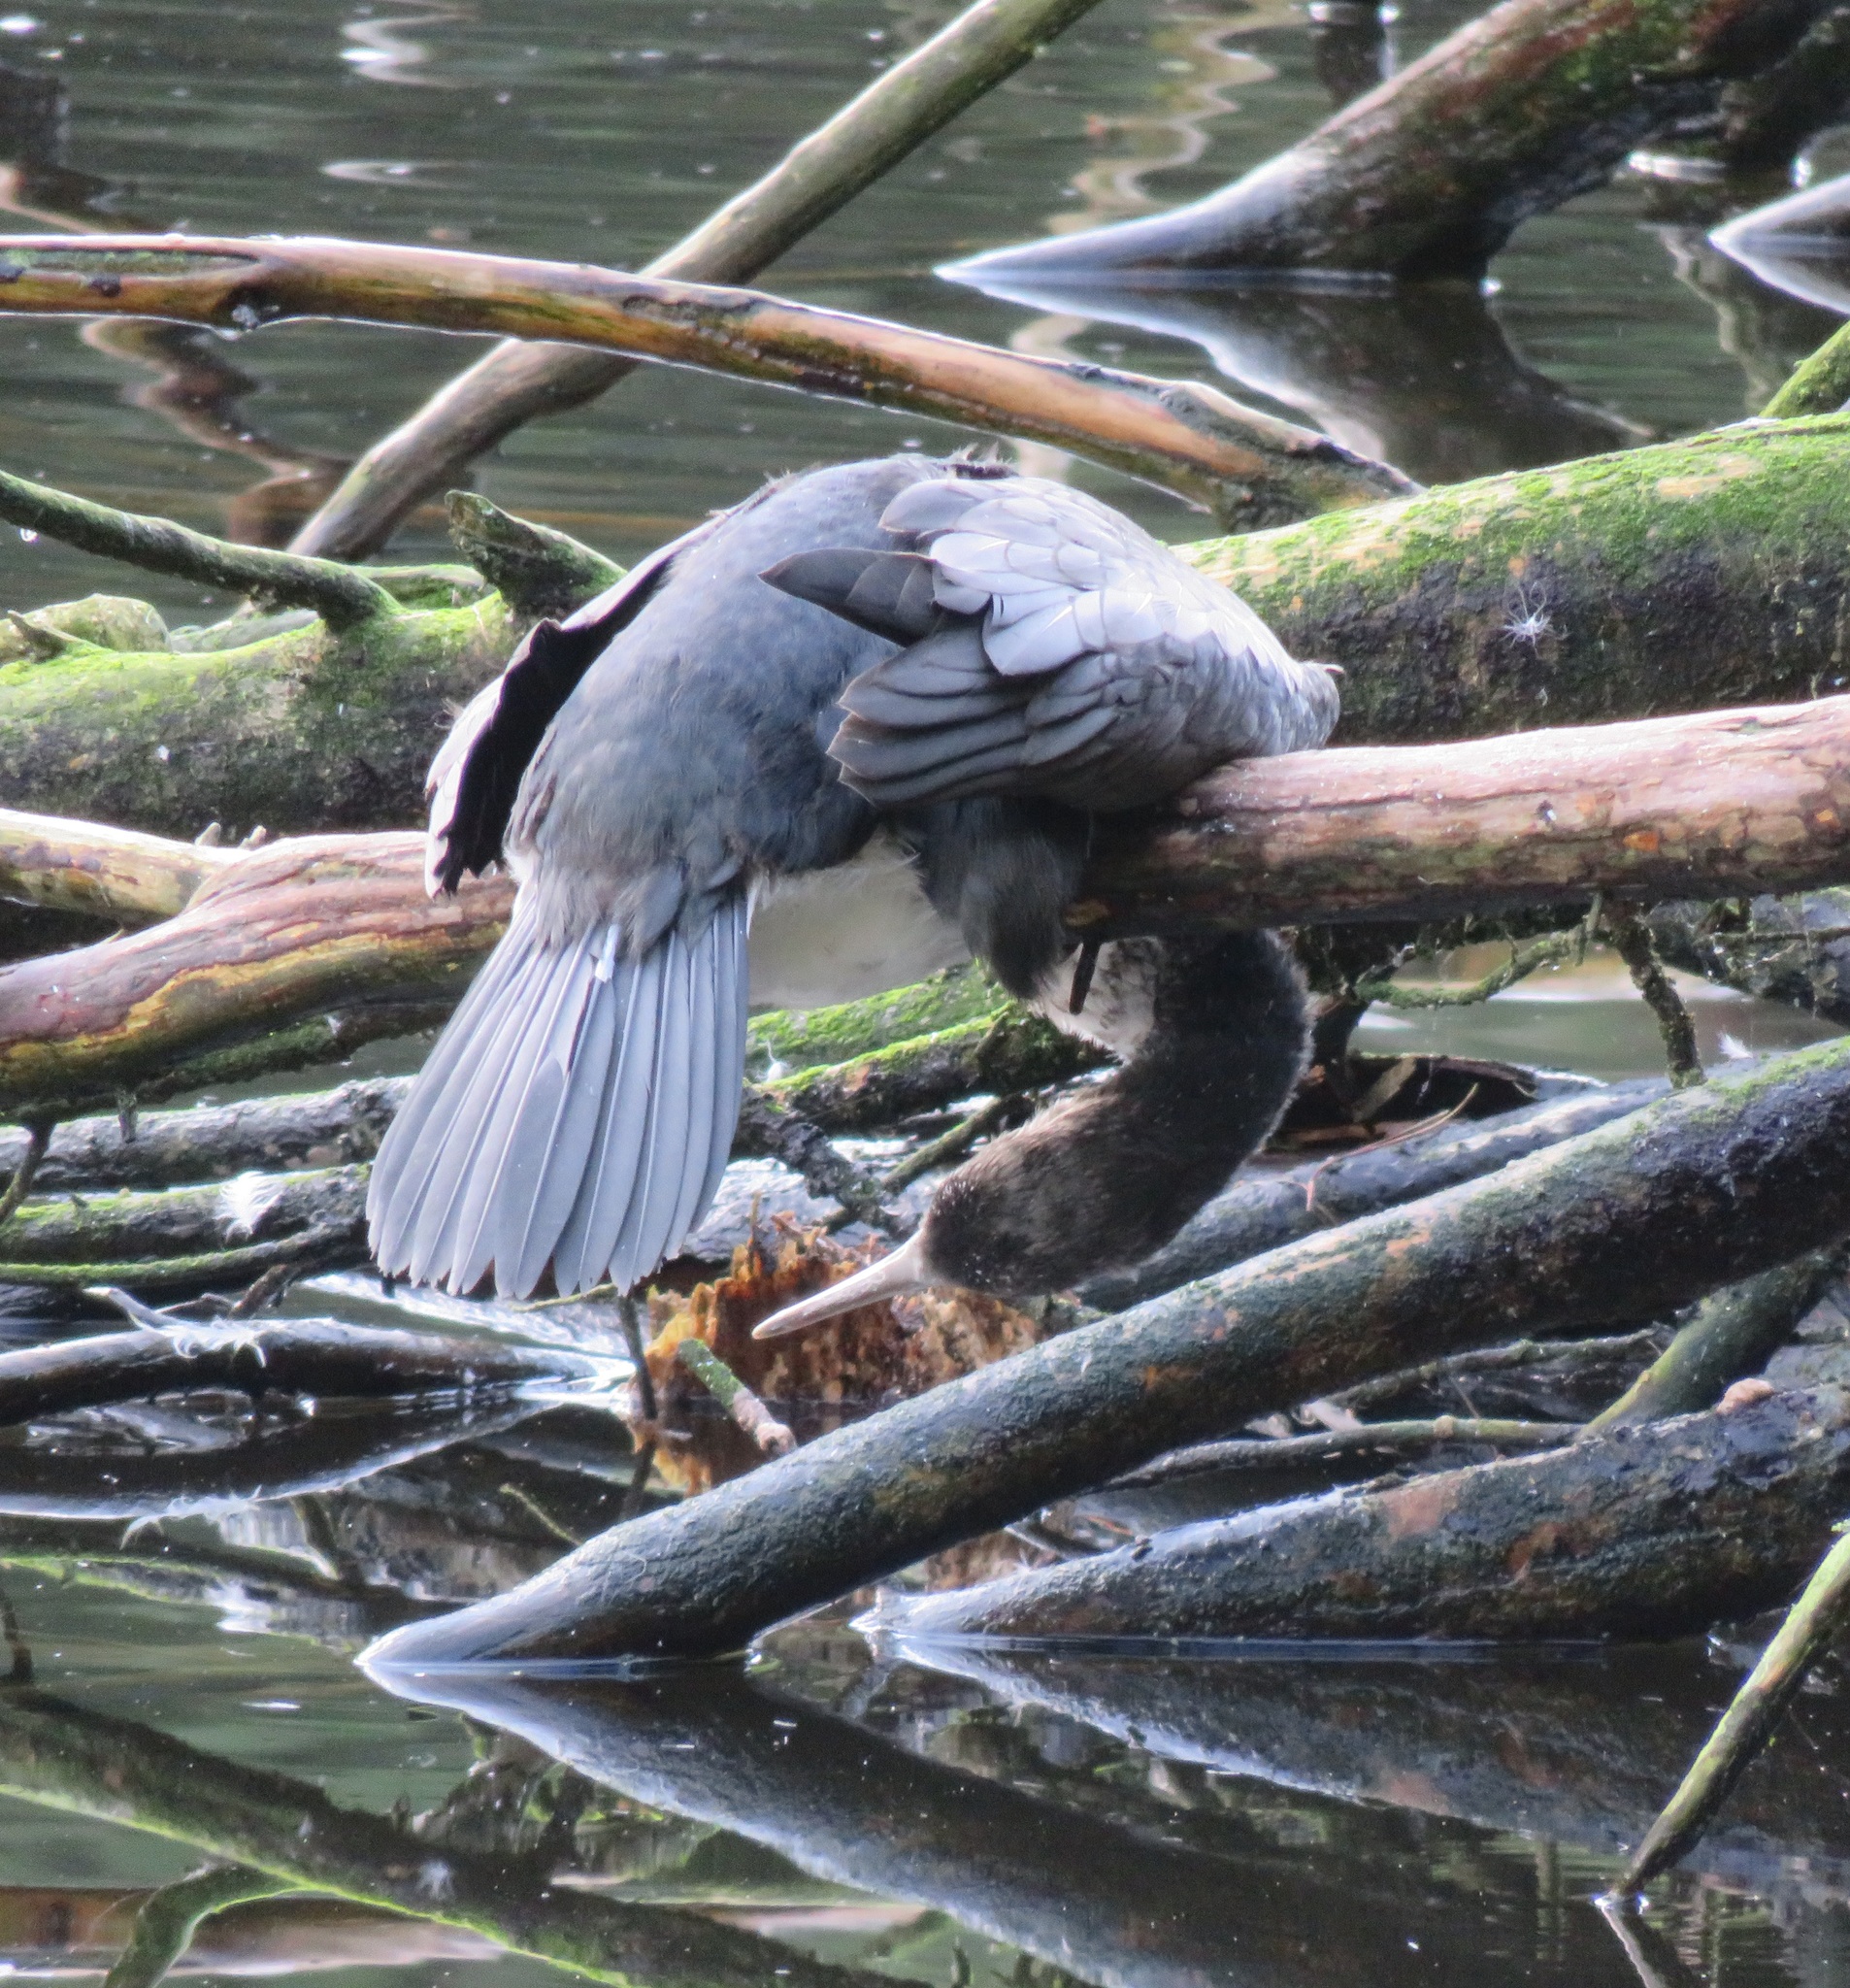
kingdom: Animalia
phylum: Chordata
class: Aves
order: Suliformes
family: Phalacrocoracidae
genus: Phalacrocorax
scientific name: Phalacrocorax varius
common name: Pied cormorant
